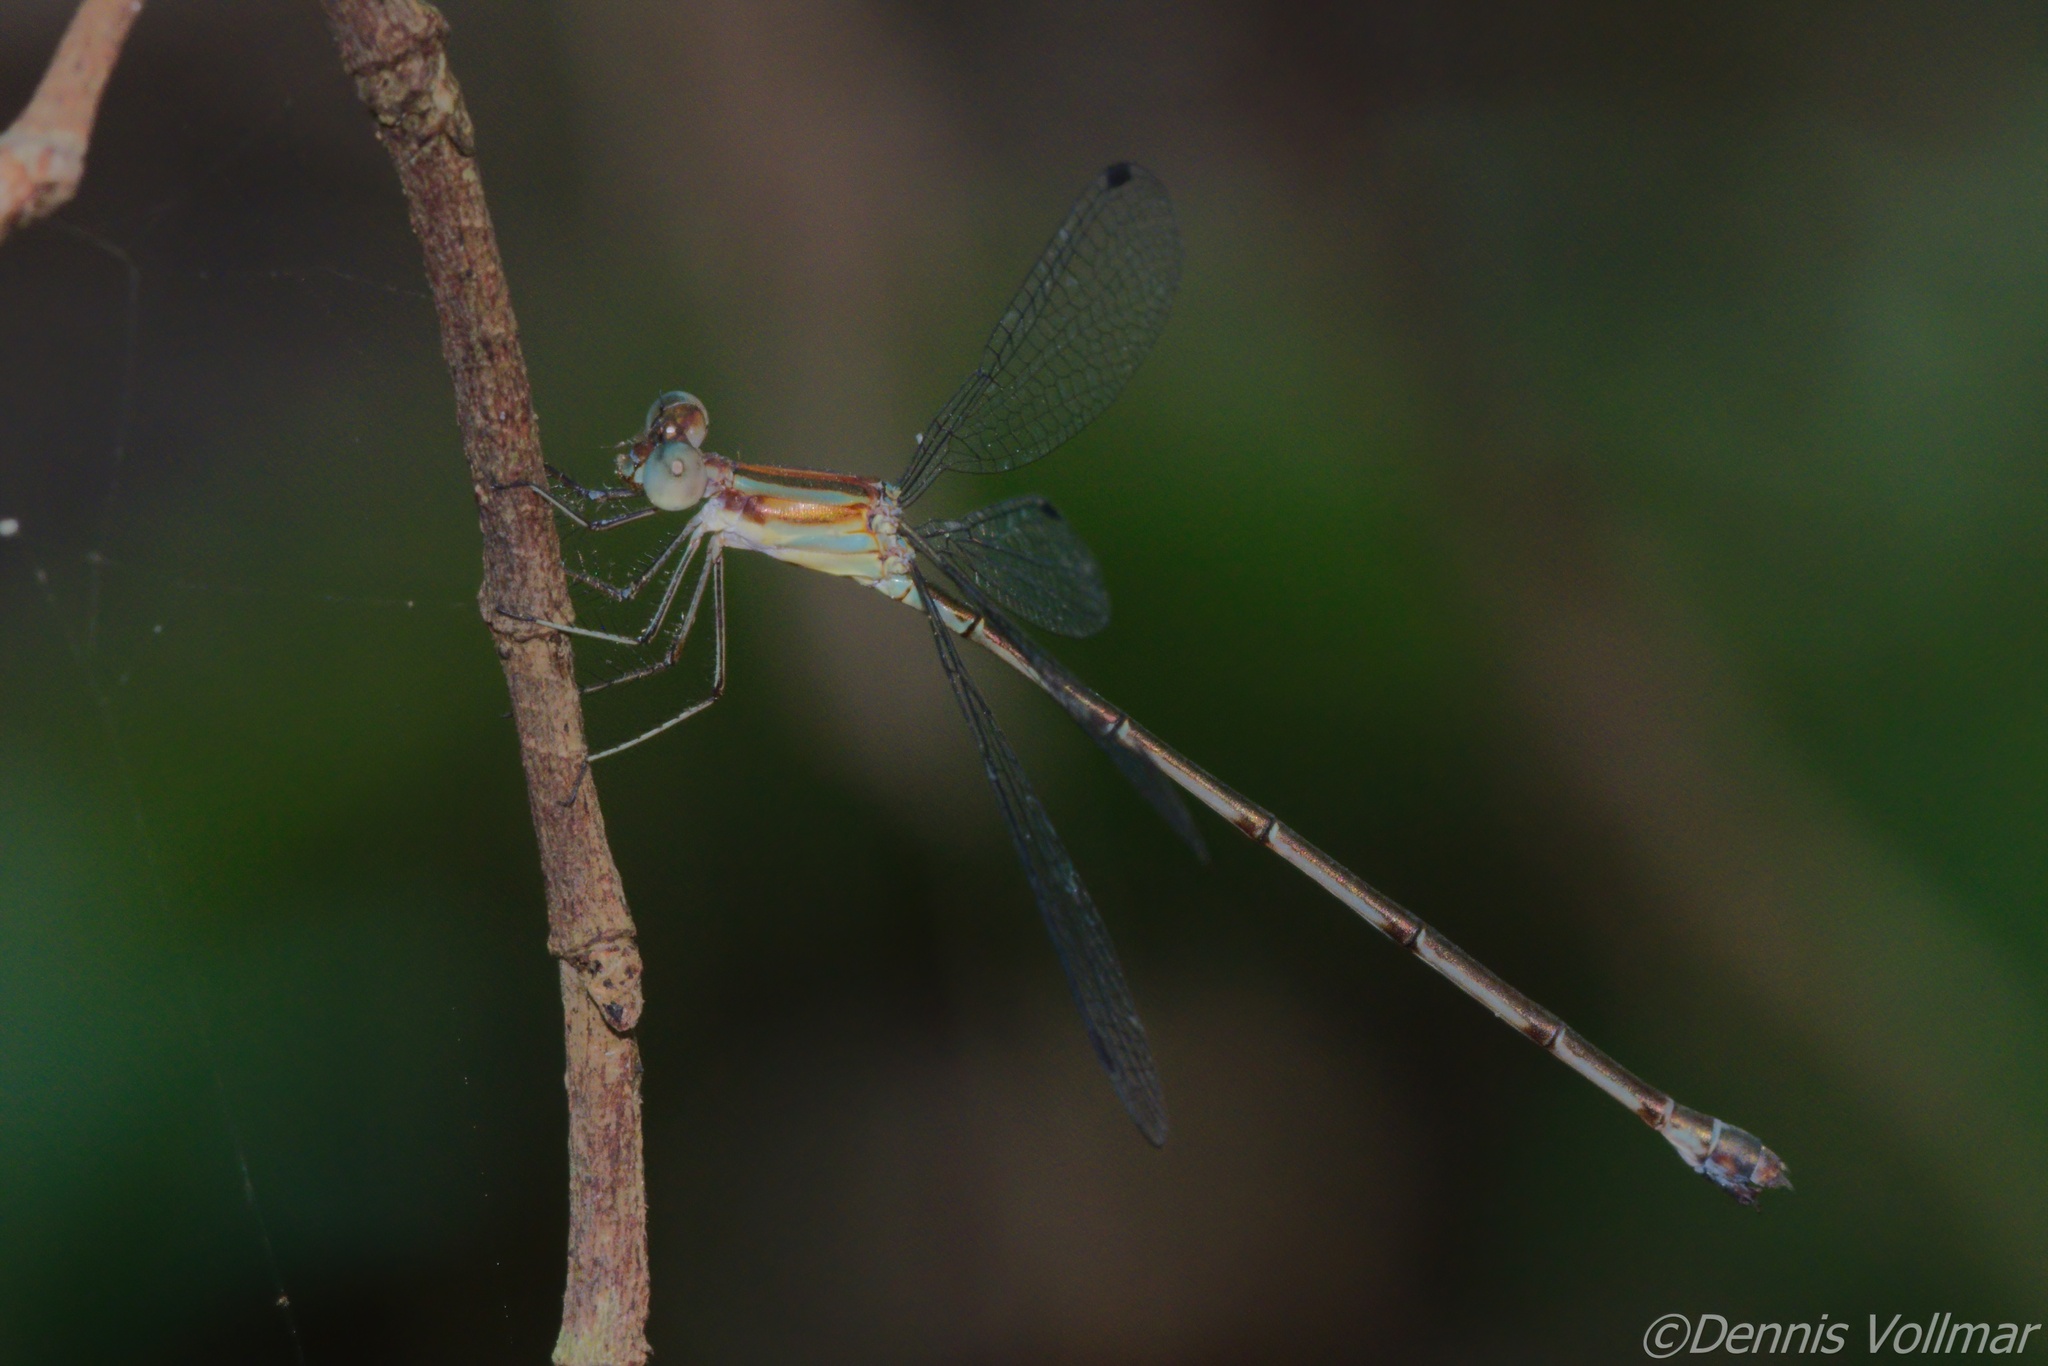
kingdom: Animalia
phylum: Arthropoda
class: Insecta
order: Odonata
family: Lestidae
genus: Lestes
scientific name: Lestes tenuatus
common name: Blue-striped spreadwing
